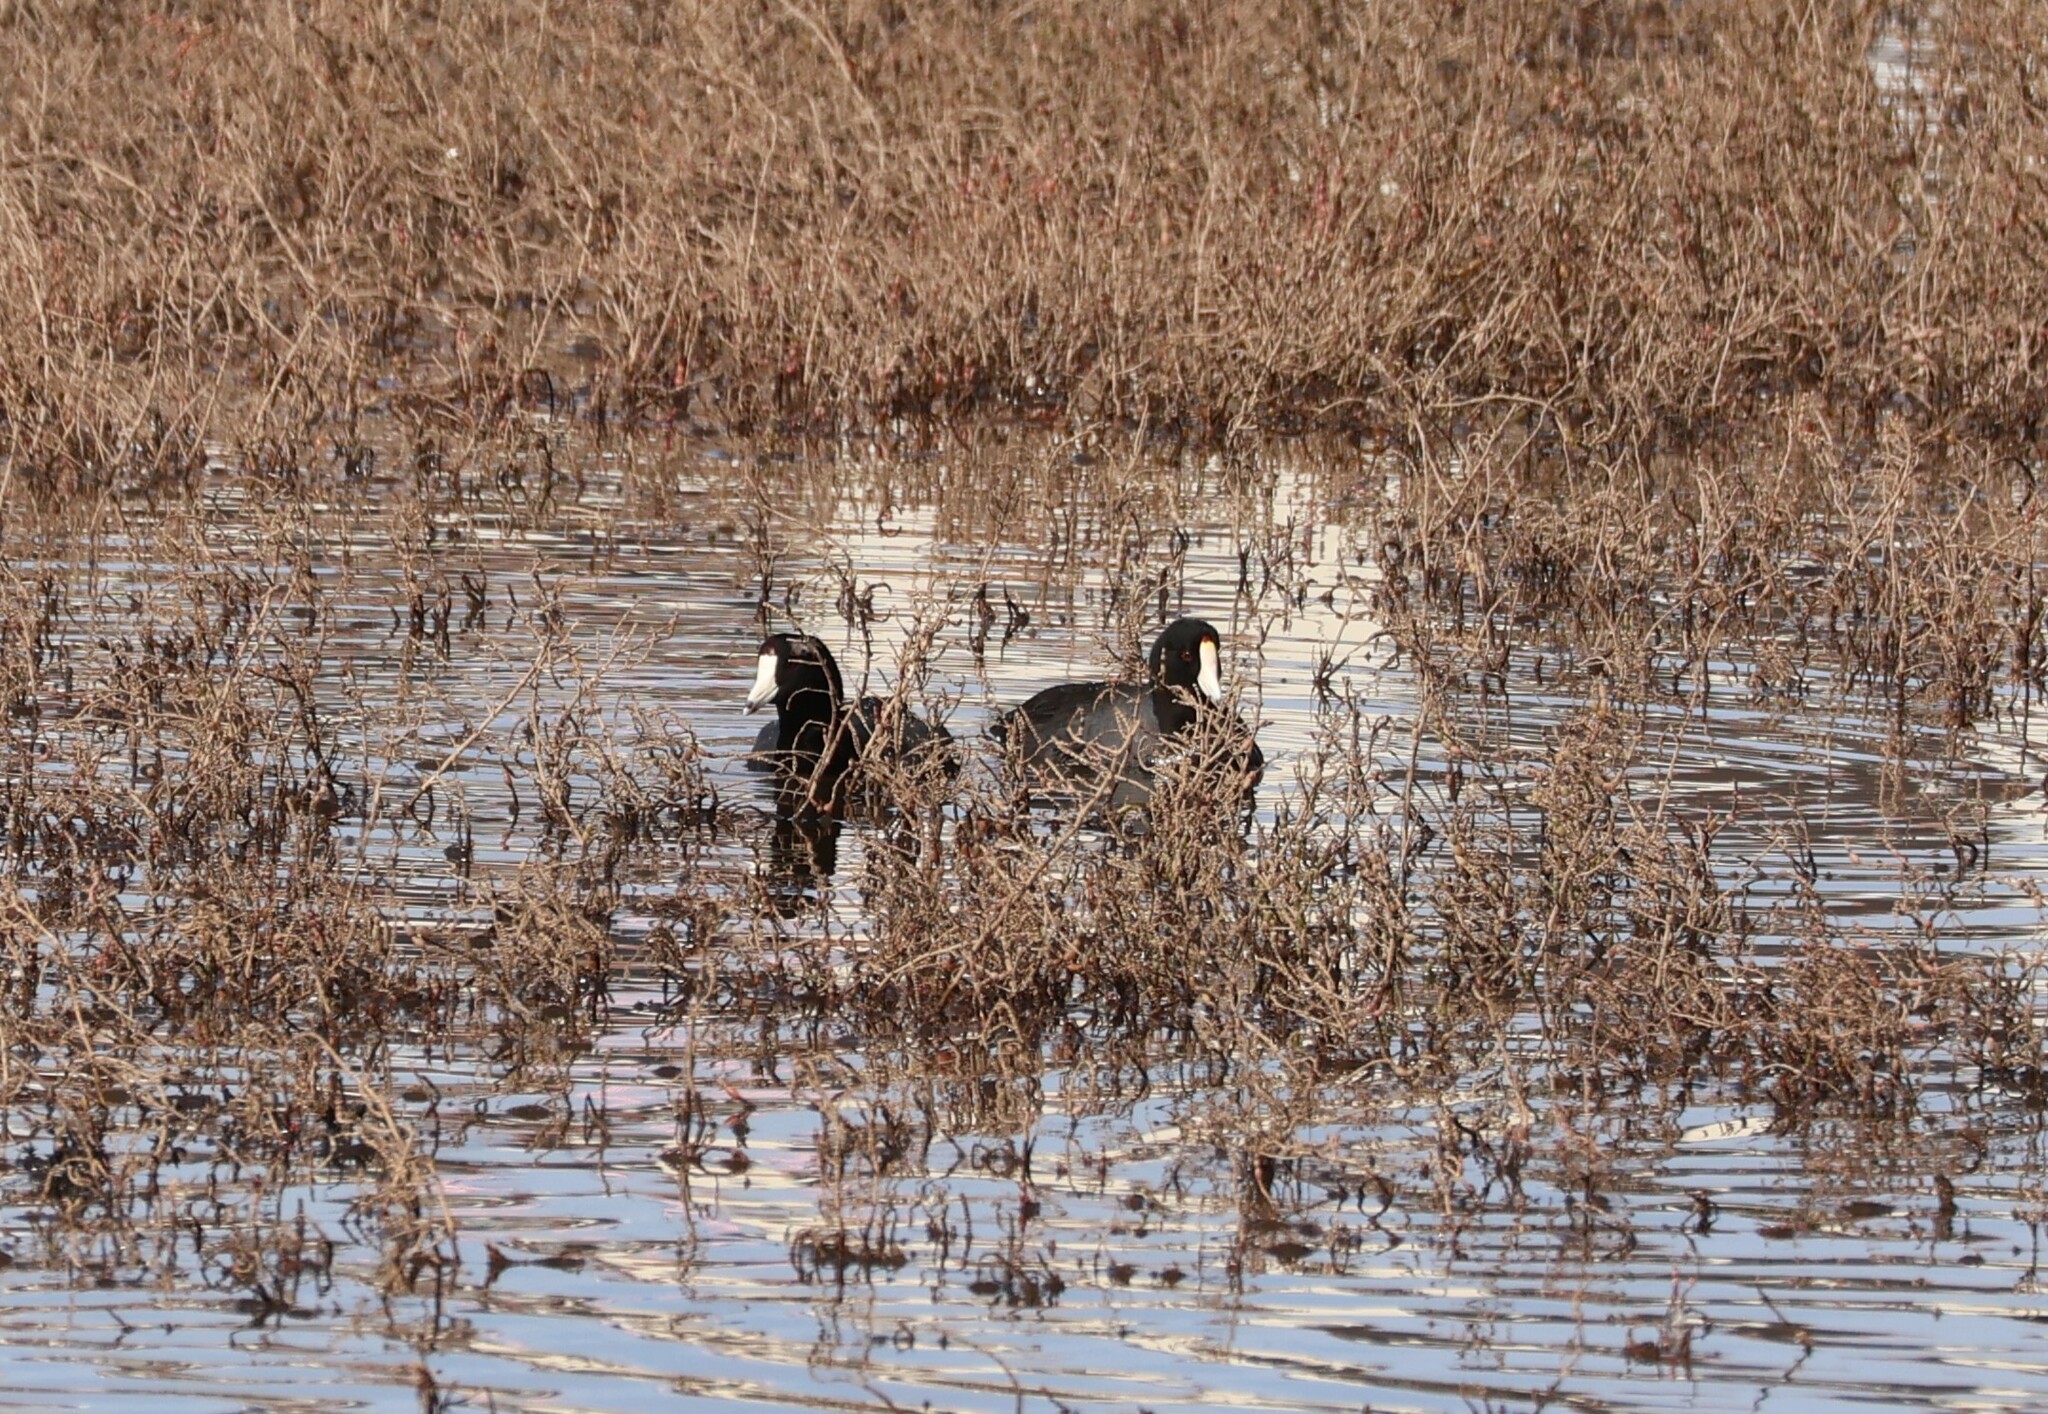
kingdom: Animalia
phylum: Chordata
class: Aves
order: Gruiformes
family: Rallidae
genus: Fulica
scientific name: Fulica americana
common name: American coot
